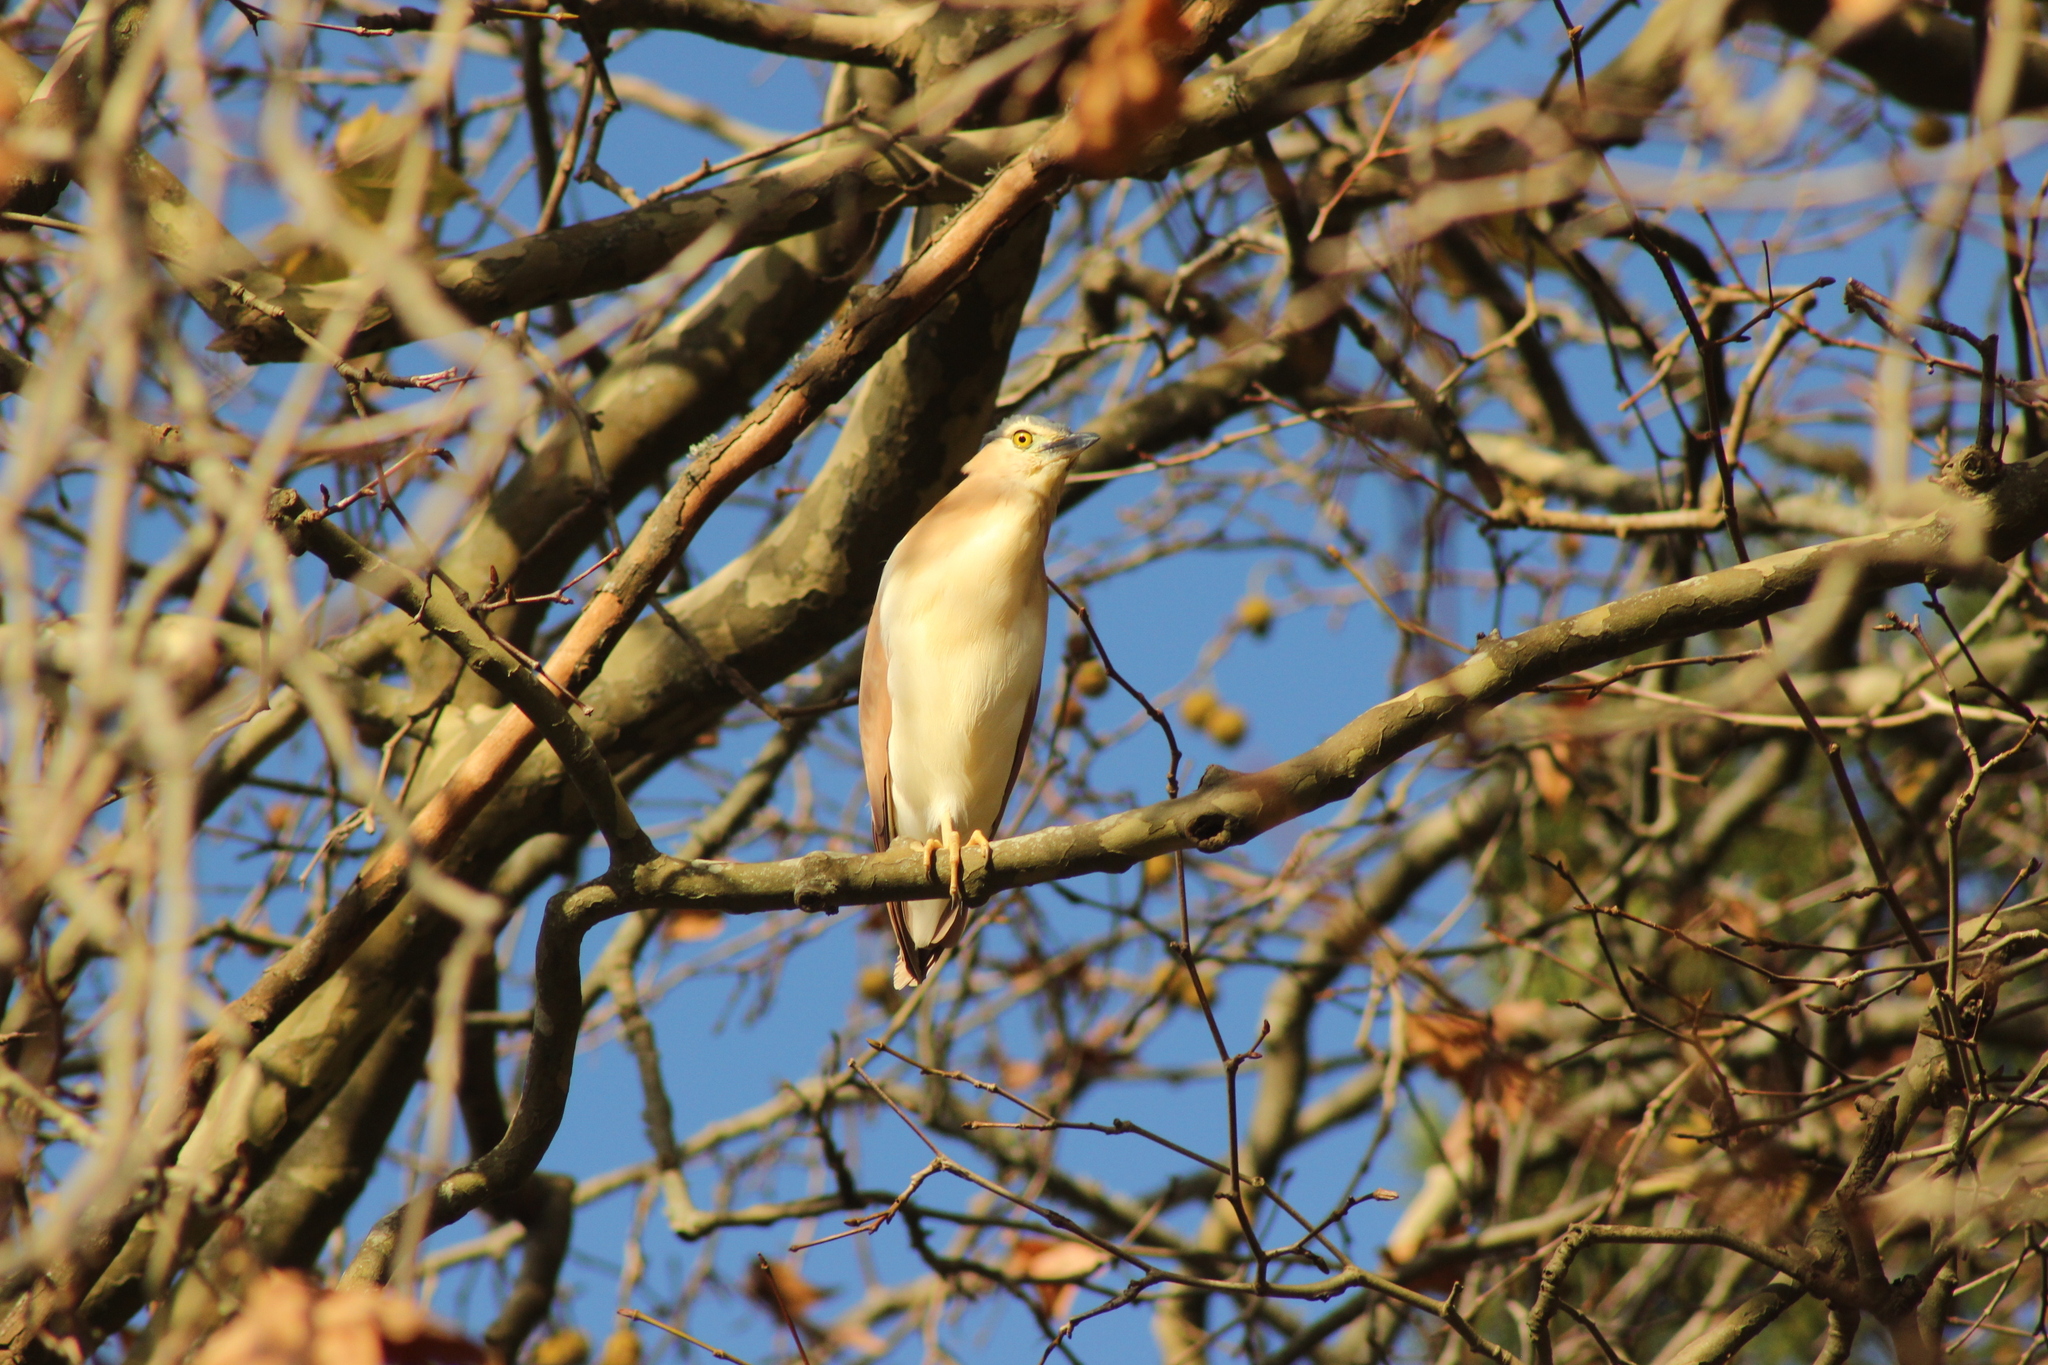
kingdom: Animalia
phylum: Chordata
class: Aves
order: Pelecaniformes
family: Ardeidae
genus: Nycticorax
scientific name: Nycticorax caledonicus
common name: Rufous night-heron
